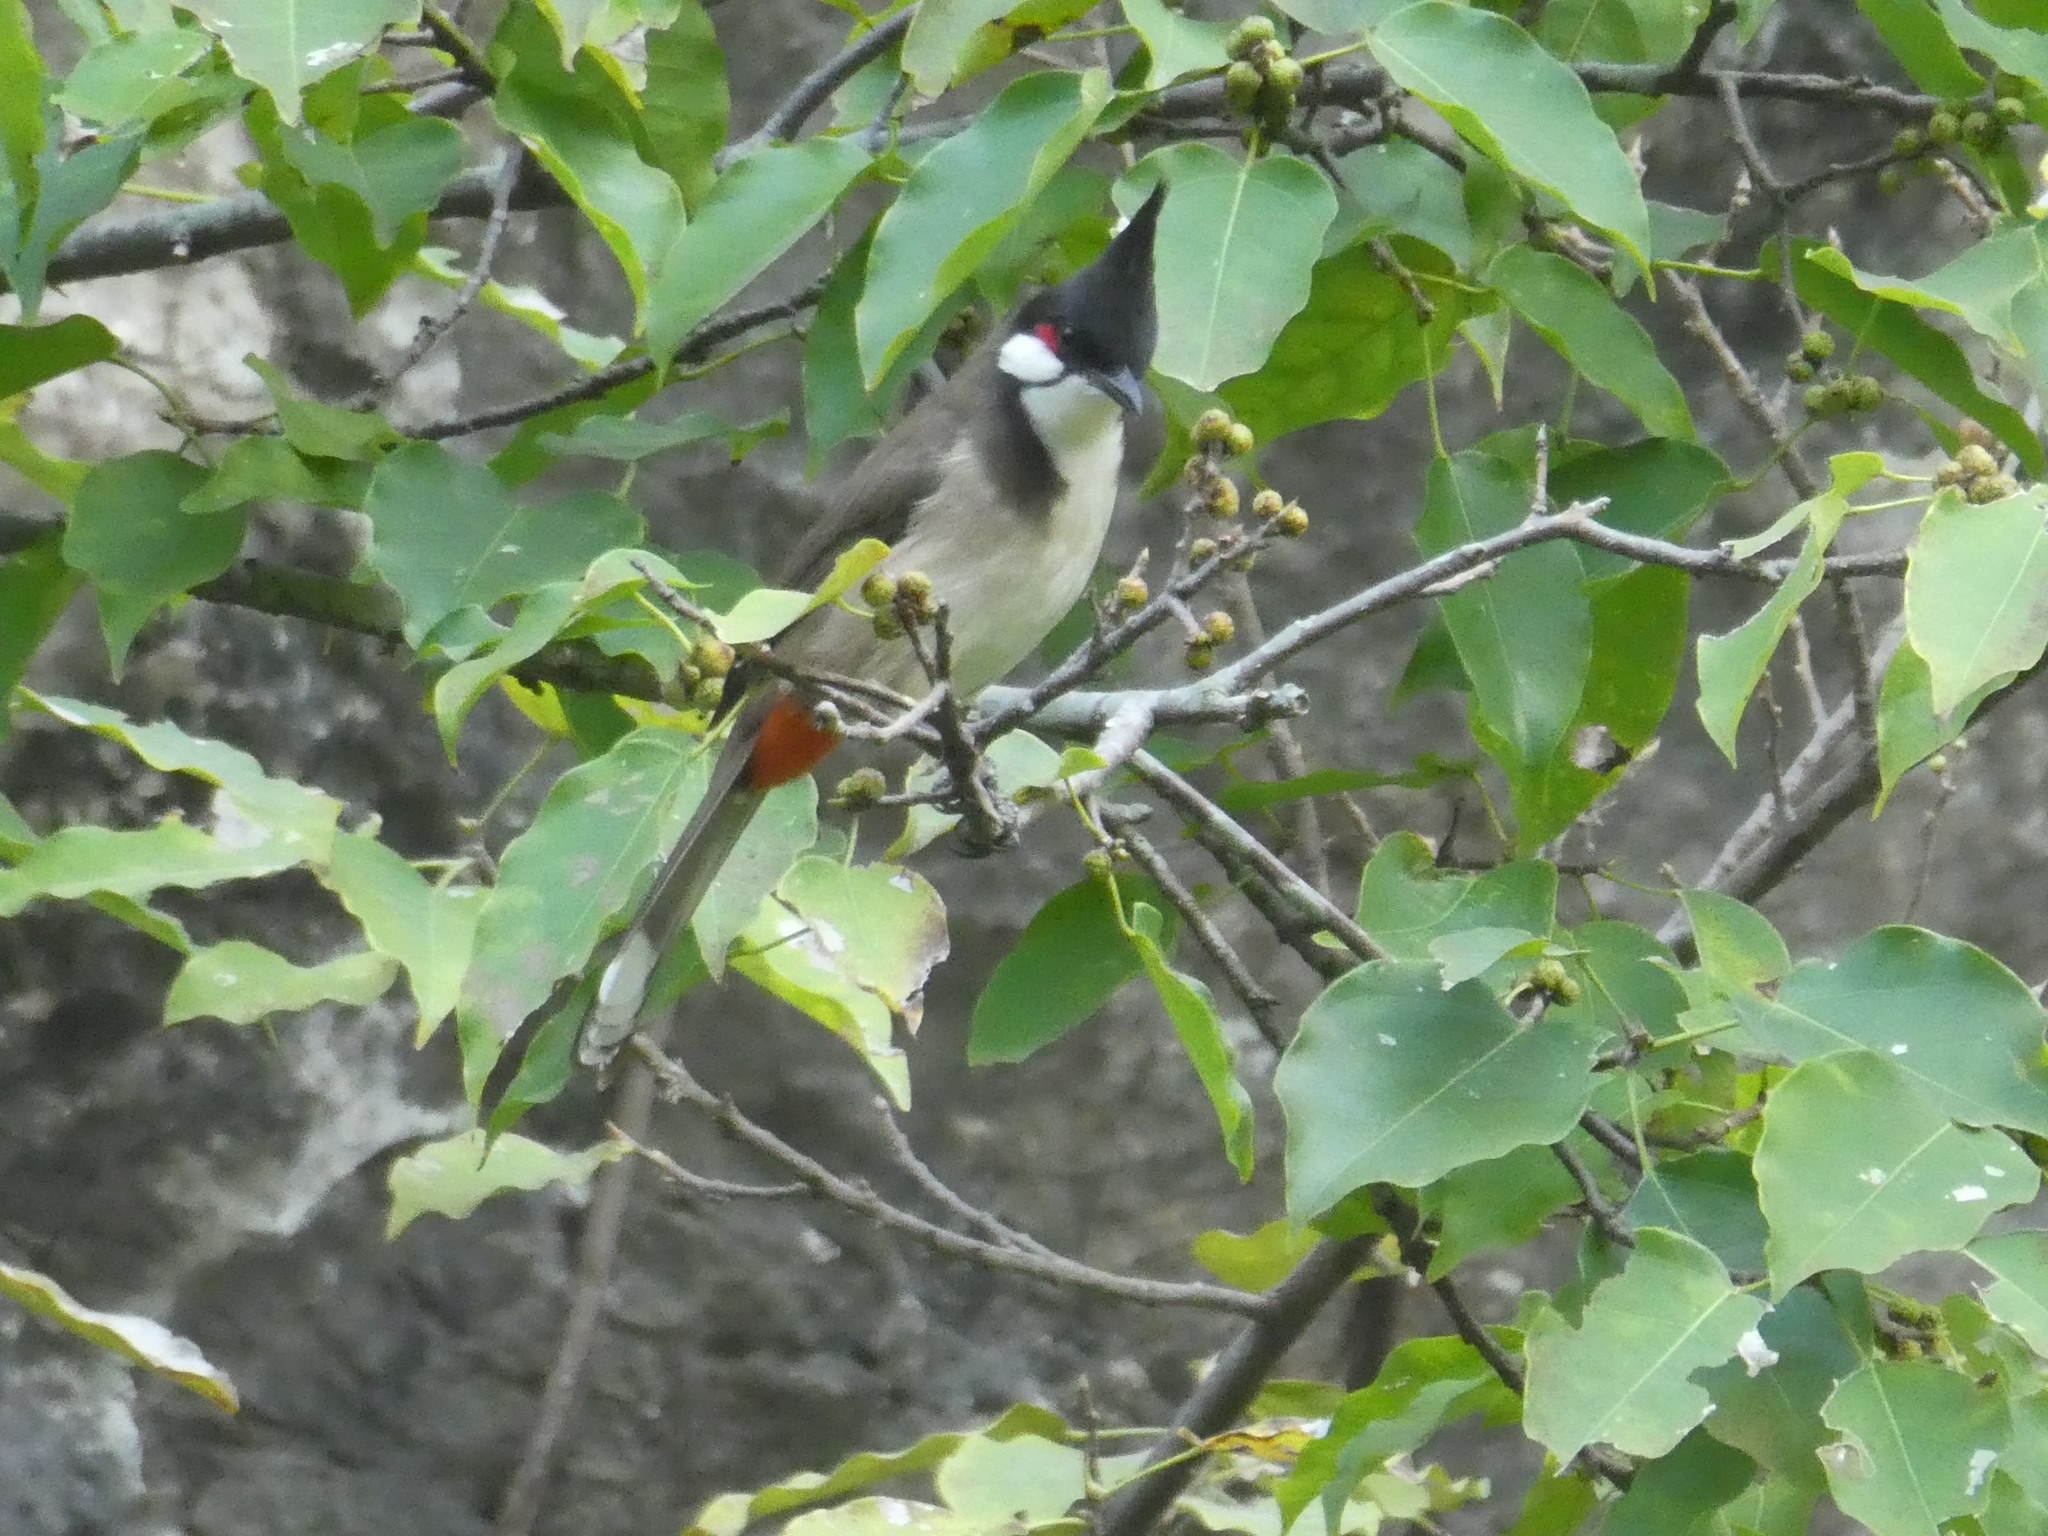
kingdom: Animalia
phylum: Chordata
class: Aves
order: Passeriformes
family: Pycnonotidae
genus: Pycnonotus
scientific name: Pycnonotus jocosus
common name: Red-whiskered bulbul
